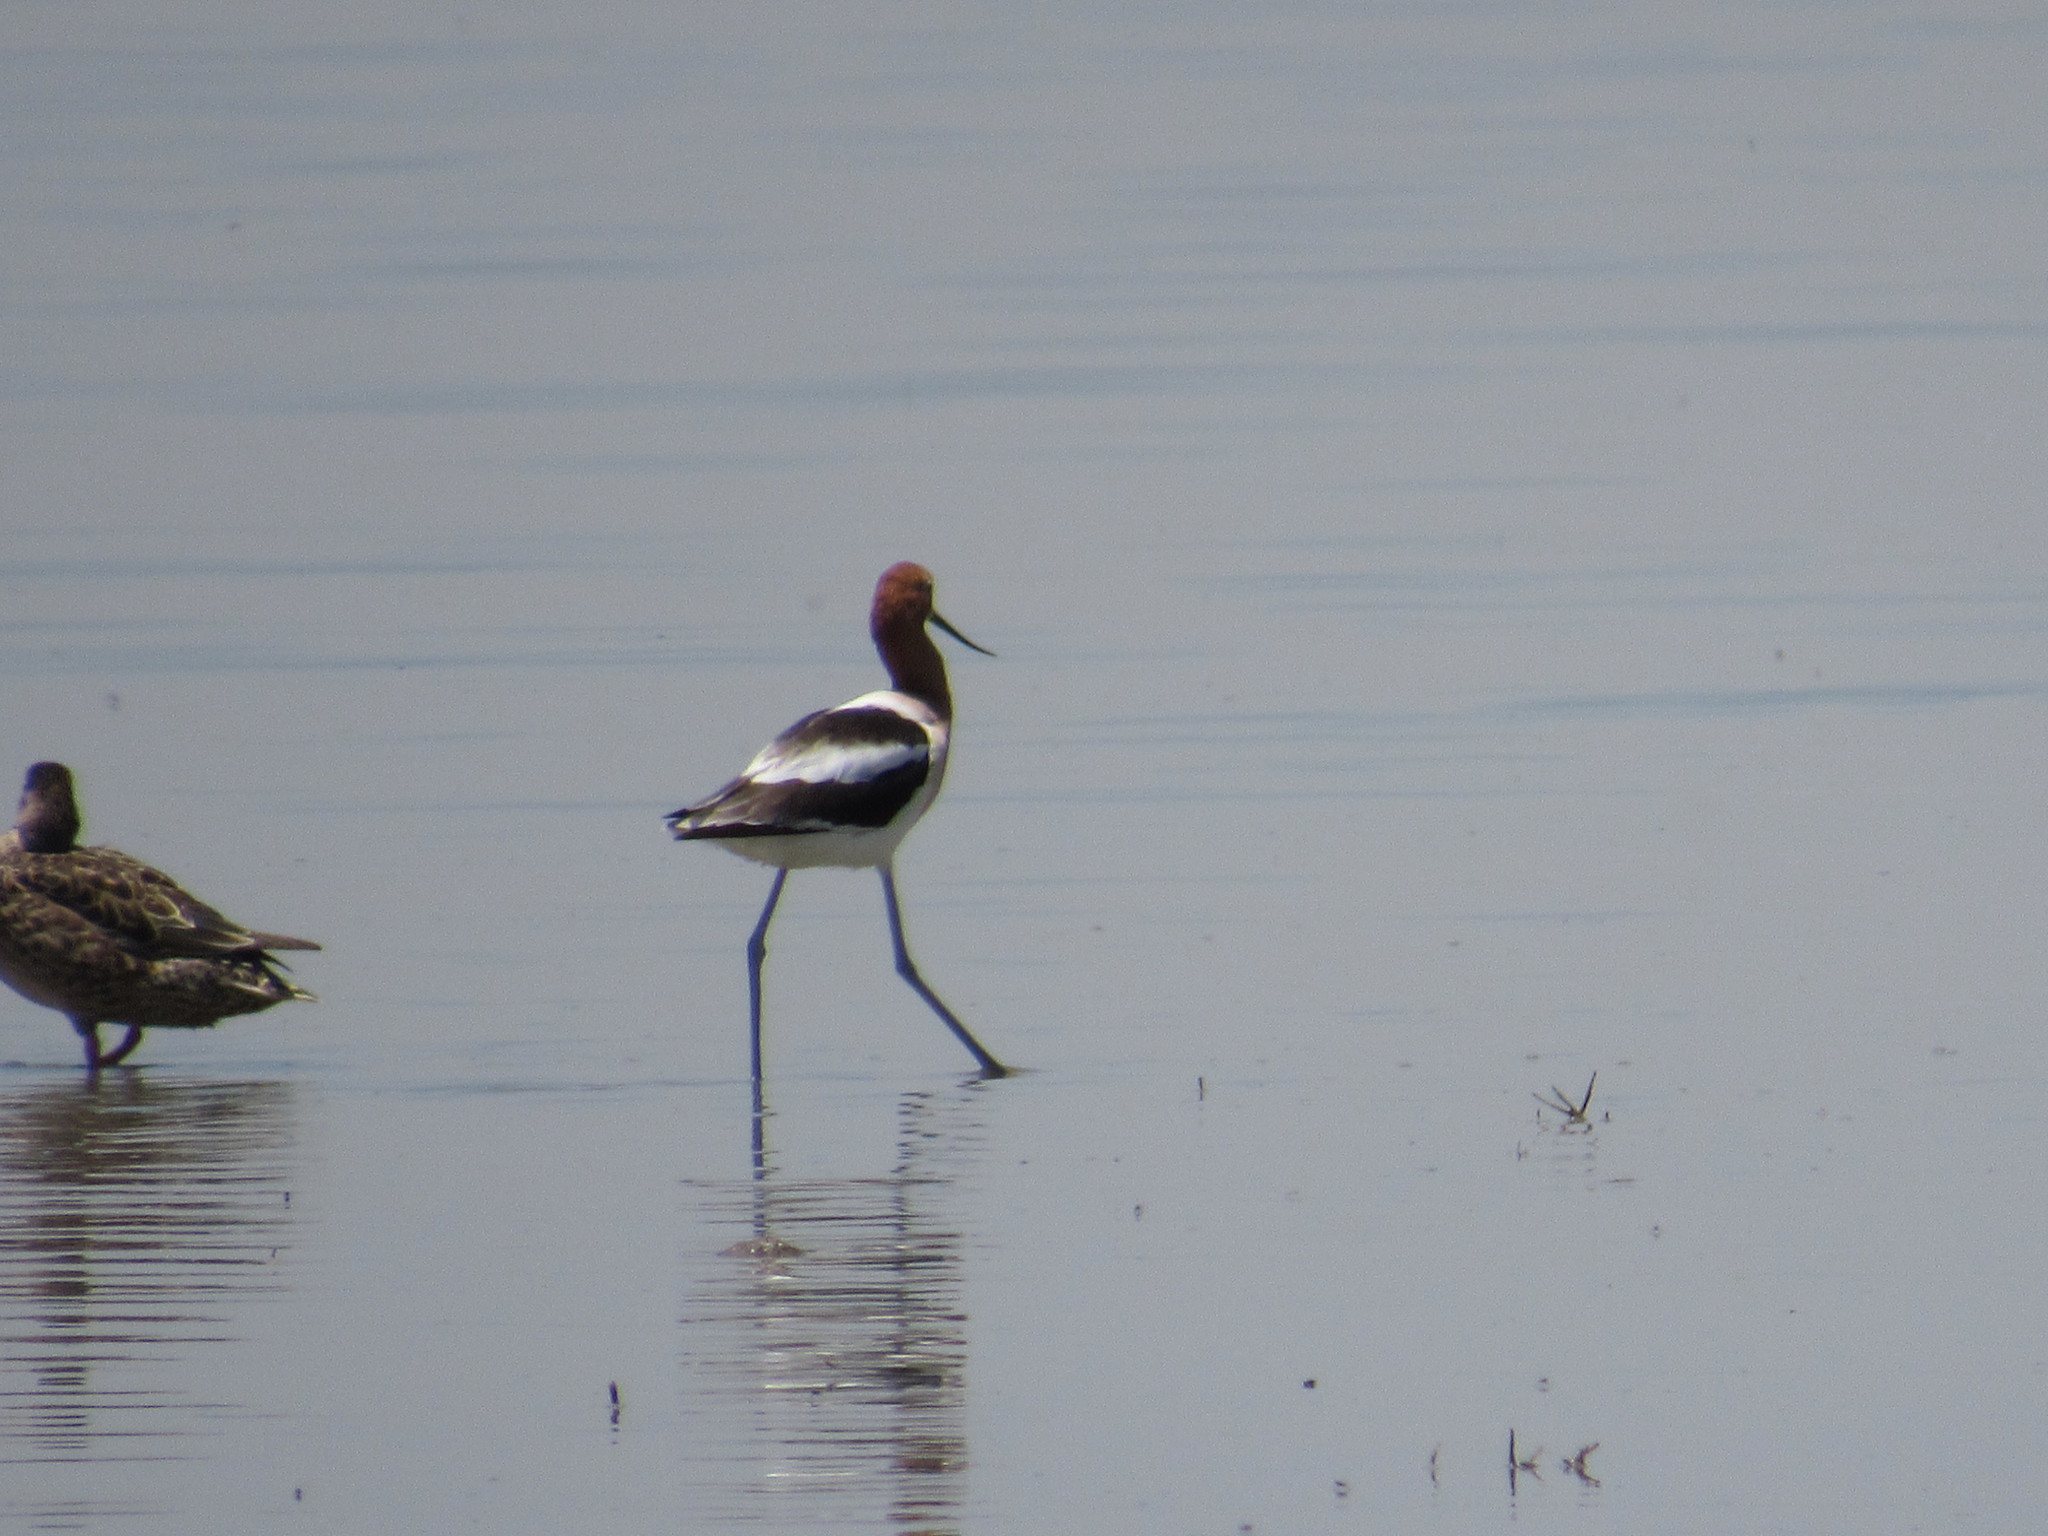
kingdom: Animalia
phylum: Chordata
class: Aves
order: Charadriiformes
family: Recurvirostridae
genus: Recurvirostra
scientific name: Recurvirostra americana
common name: American avocet
